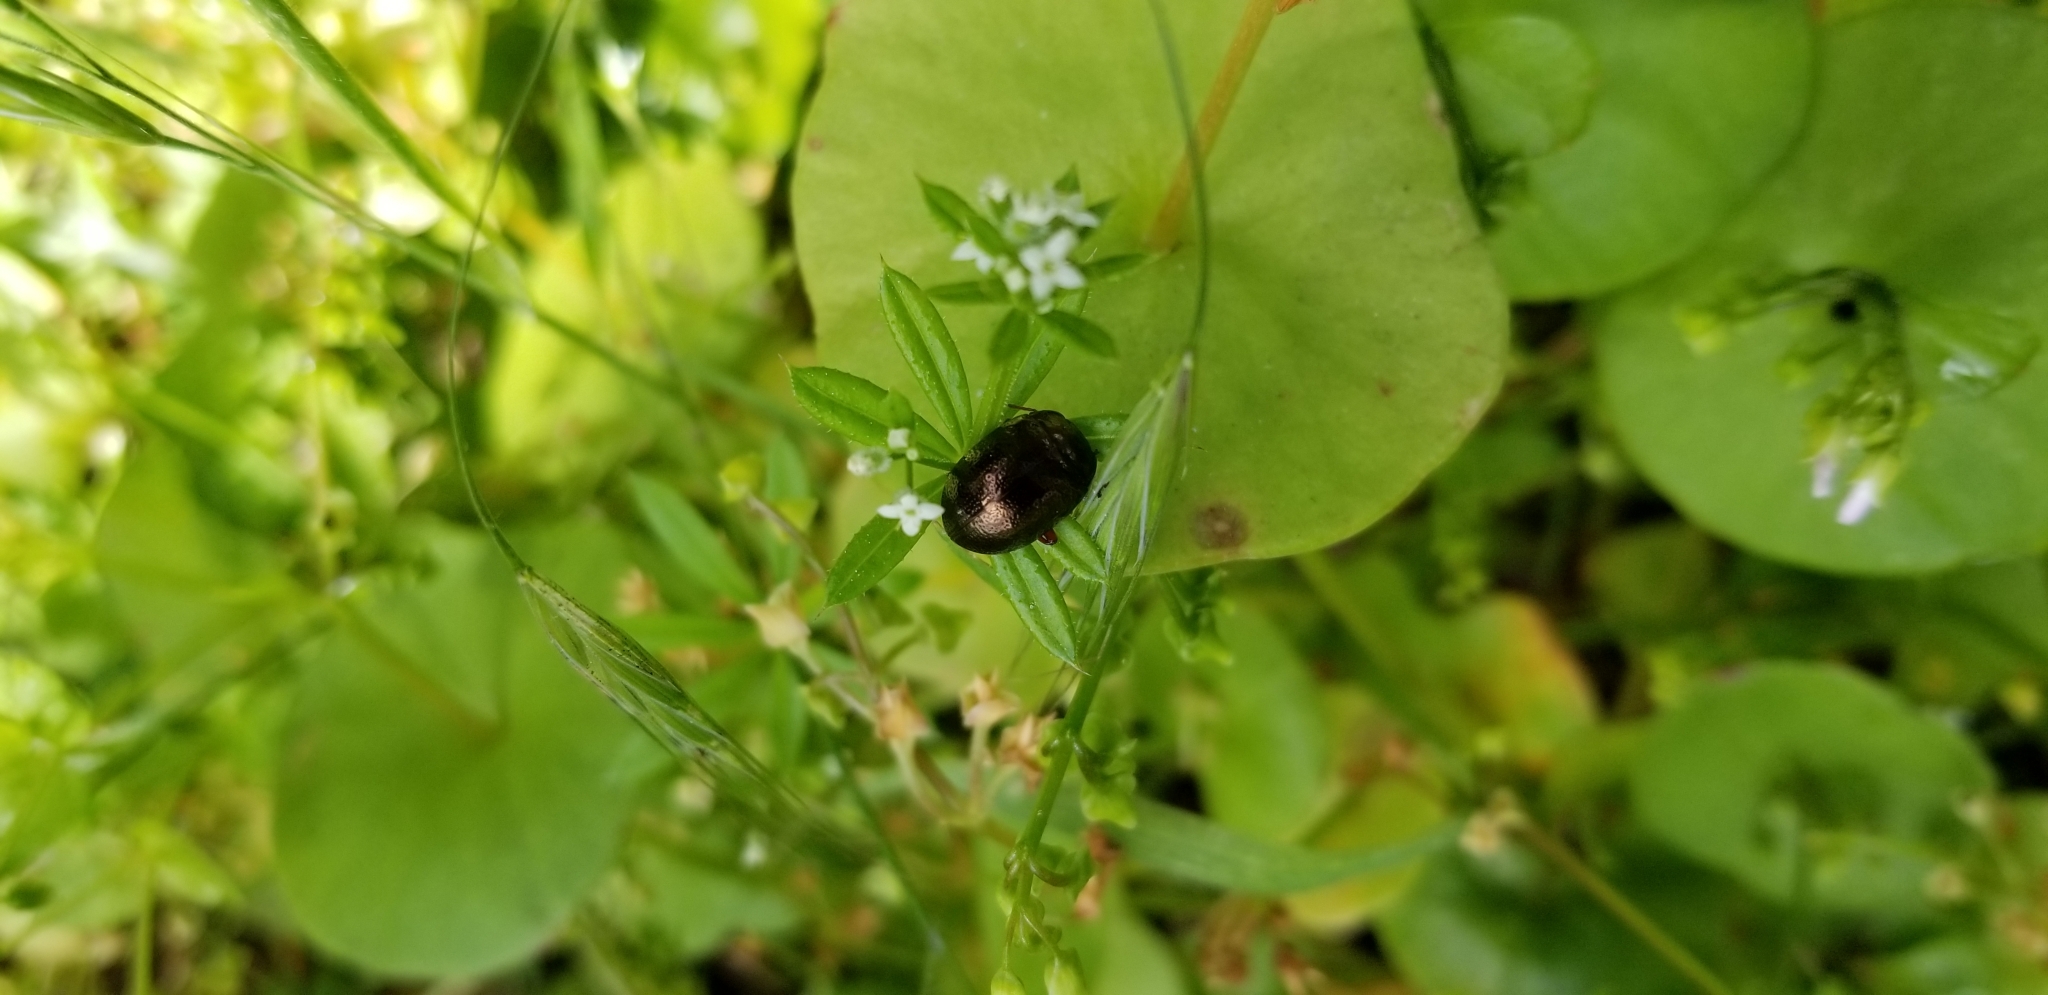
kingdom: Animalia
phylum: Arthropoda
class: Insecta
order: Coleoptera
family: Chrysomelidae
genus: Chrysolina
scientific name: Chrysolina bankii
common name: Leaf beetle
